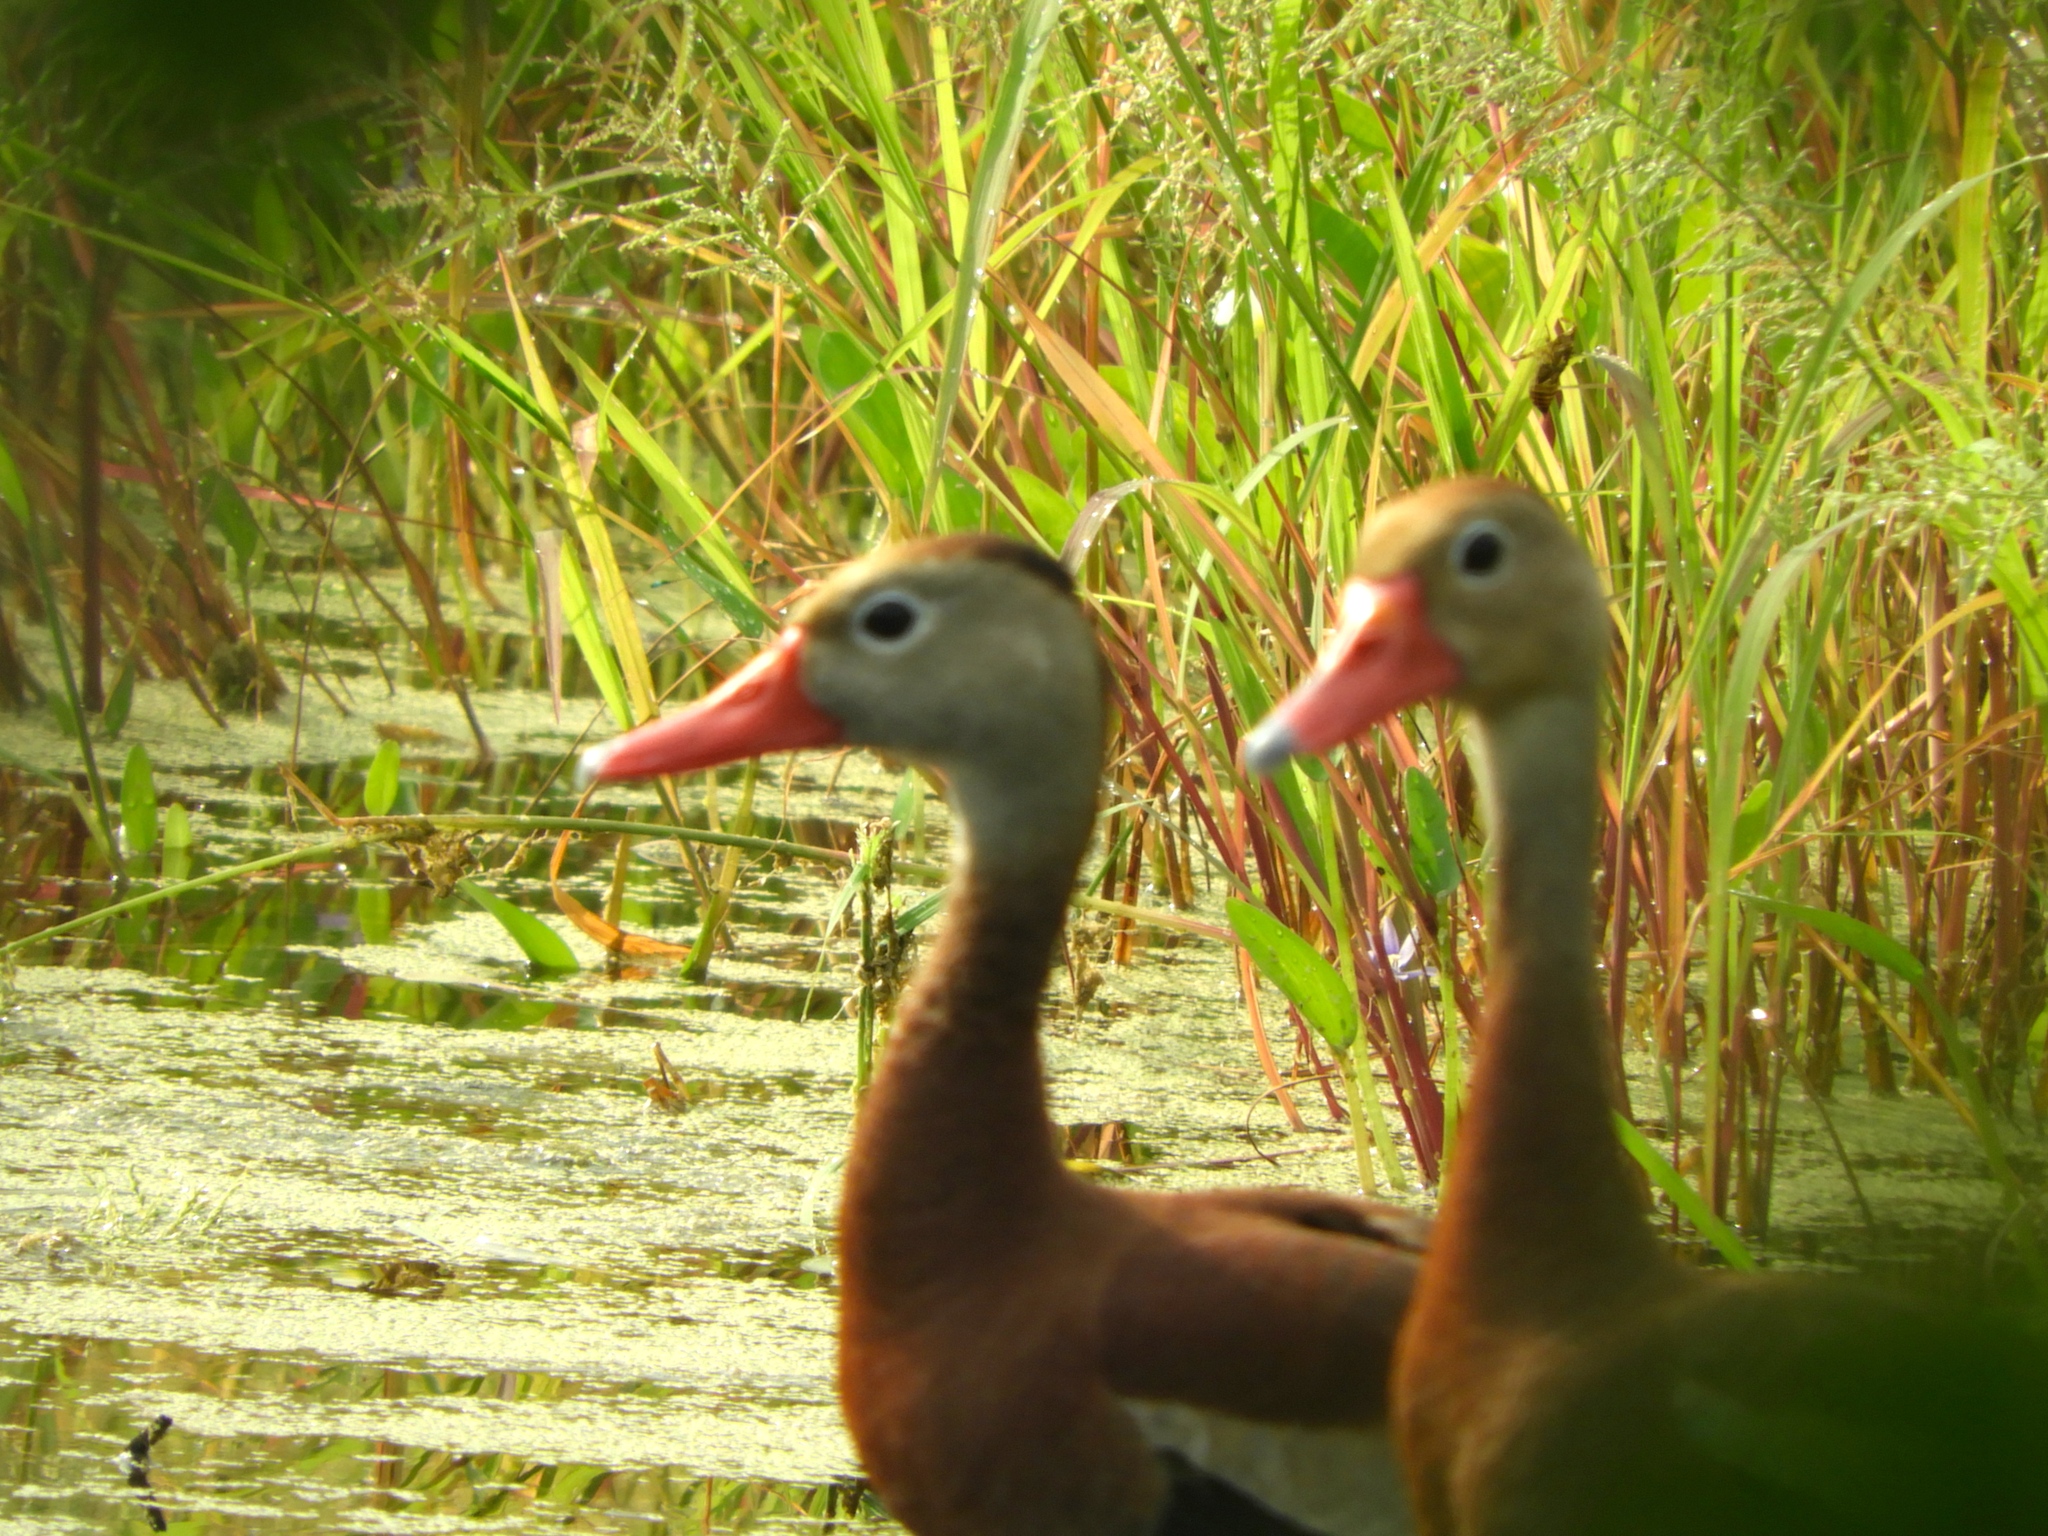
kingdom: Animalia
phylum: Chordata
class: Aves
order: Anseriformes
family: Anatidae
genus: Dendrocygna
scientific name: Dendrocygna autumnalis
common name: Black-bellied whistling duck
